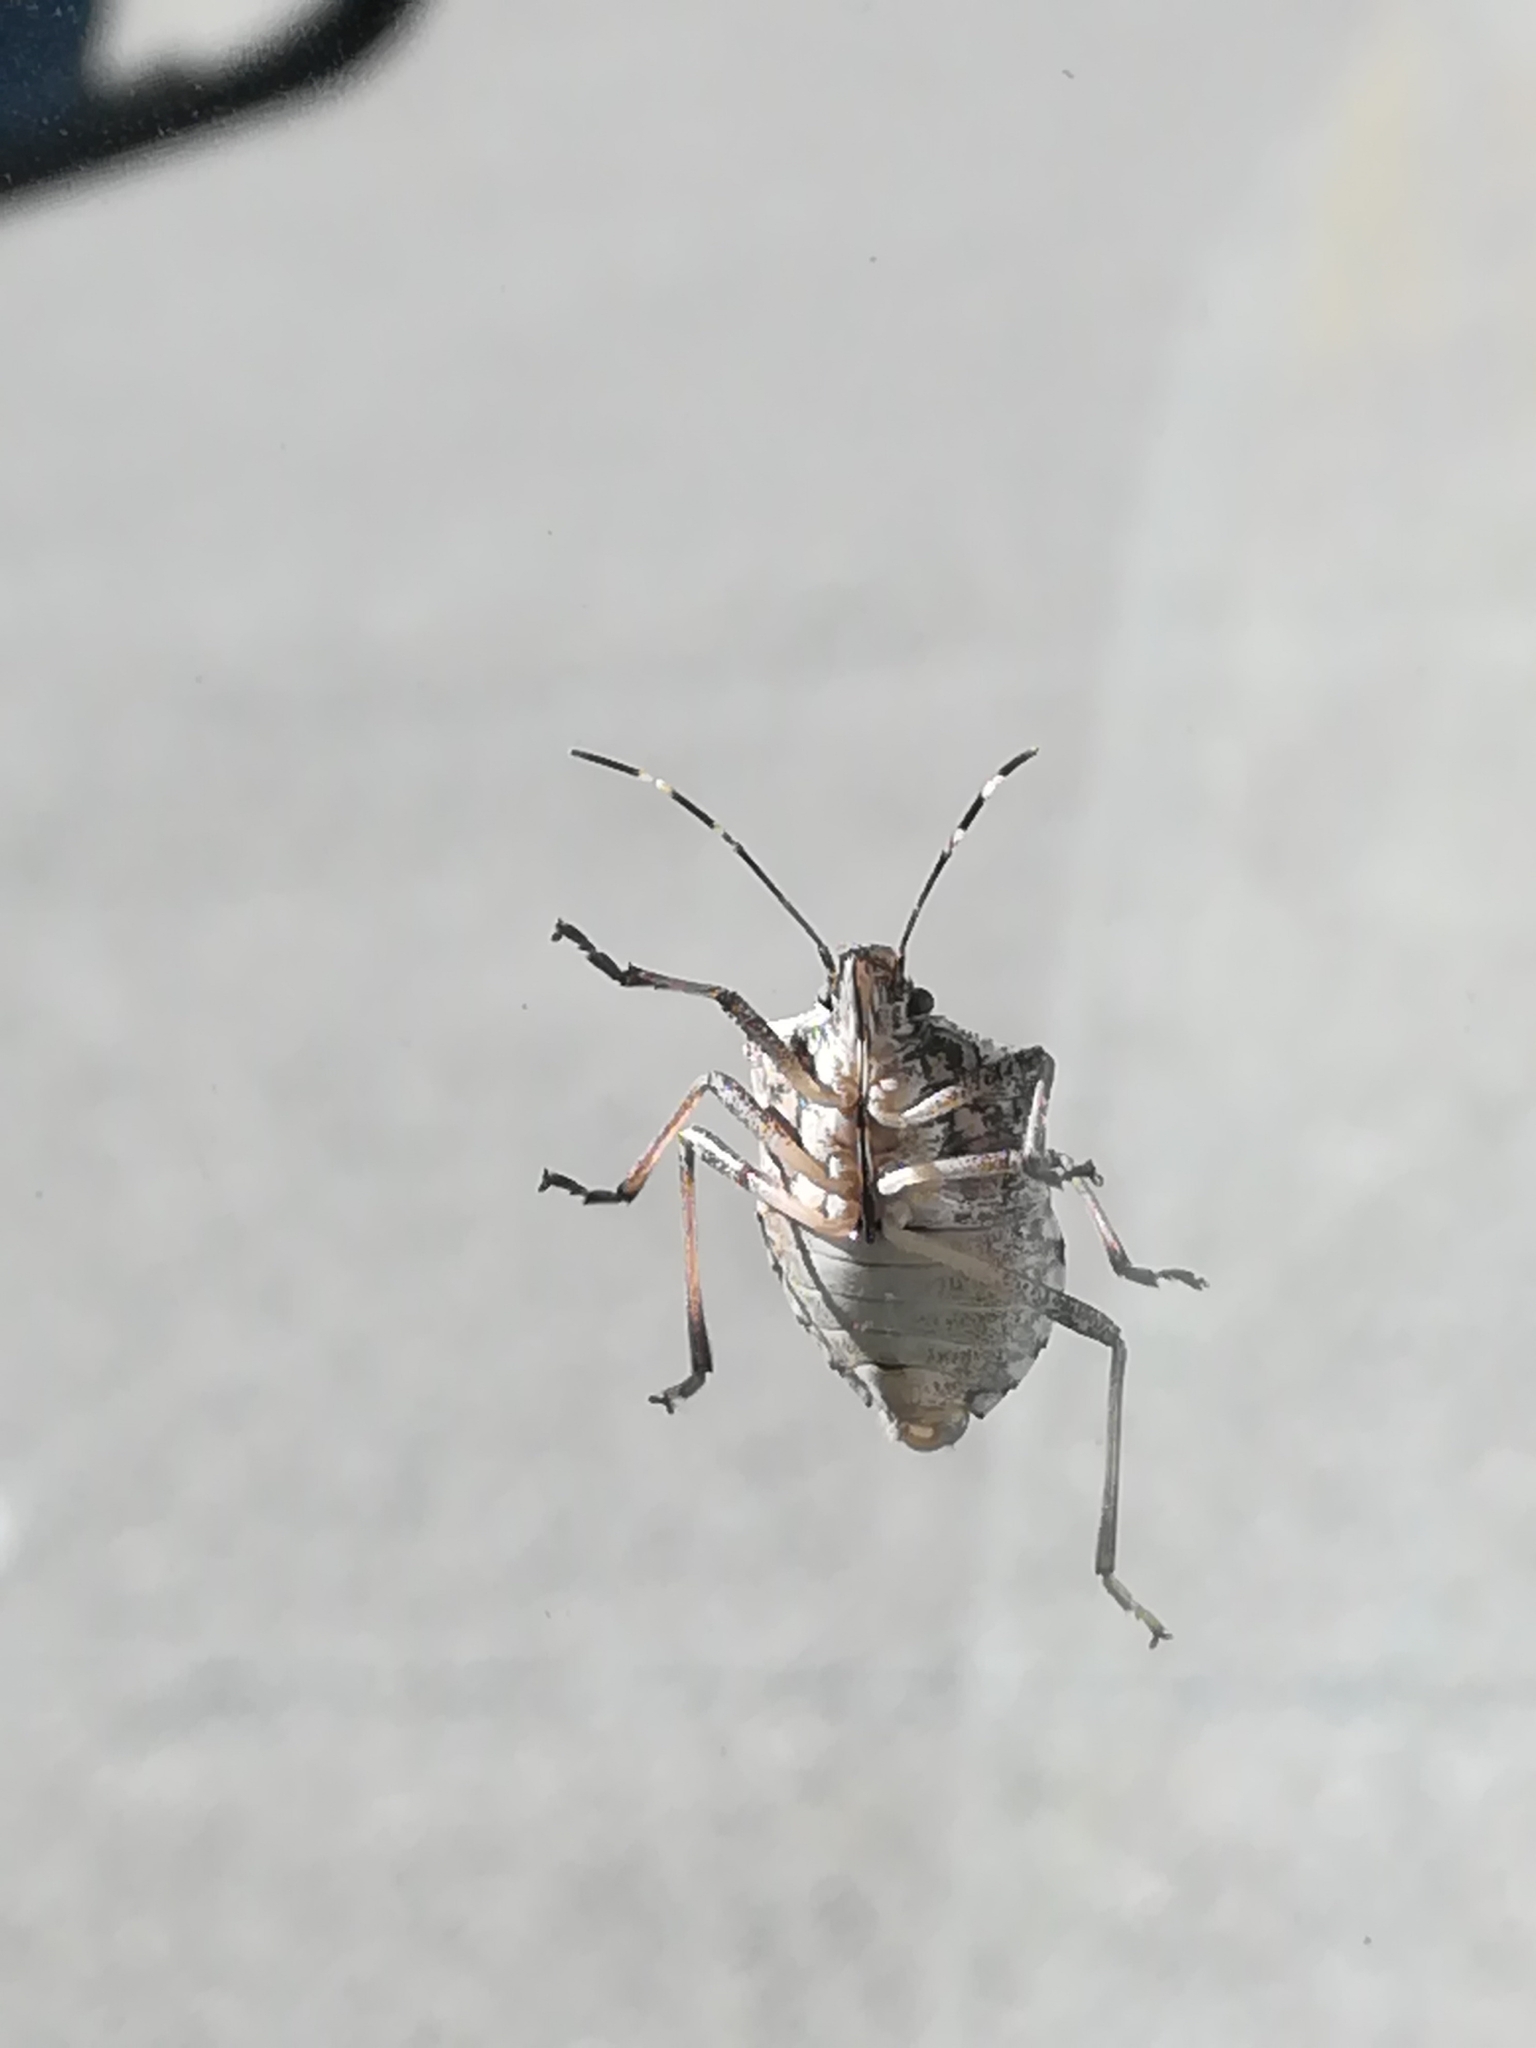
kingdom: Animalia
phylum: Arthropoda
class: Insecta
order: Hemiptera
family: Pentatomidae
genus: Halyomorpha
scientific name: Halyomorpha halys
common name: Brown marmorated stink bug
